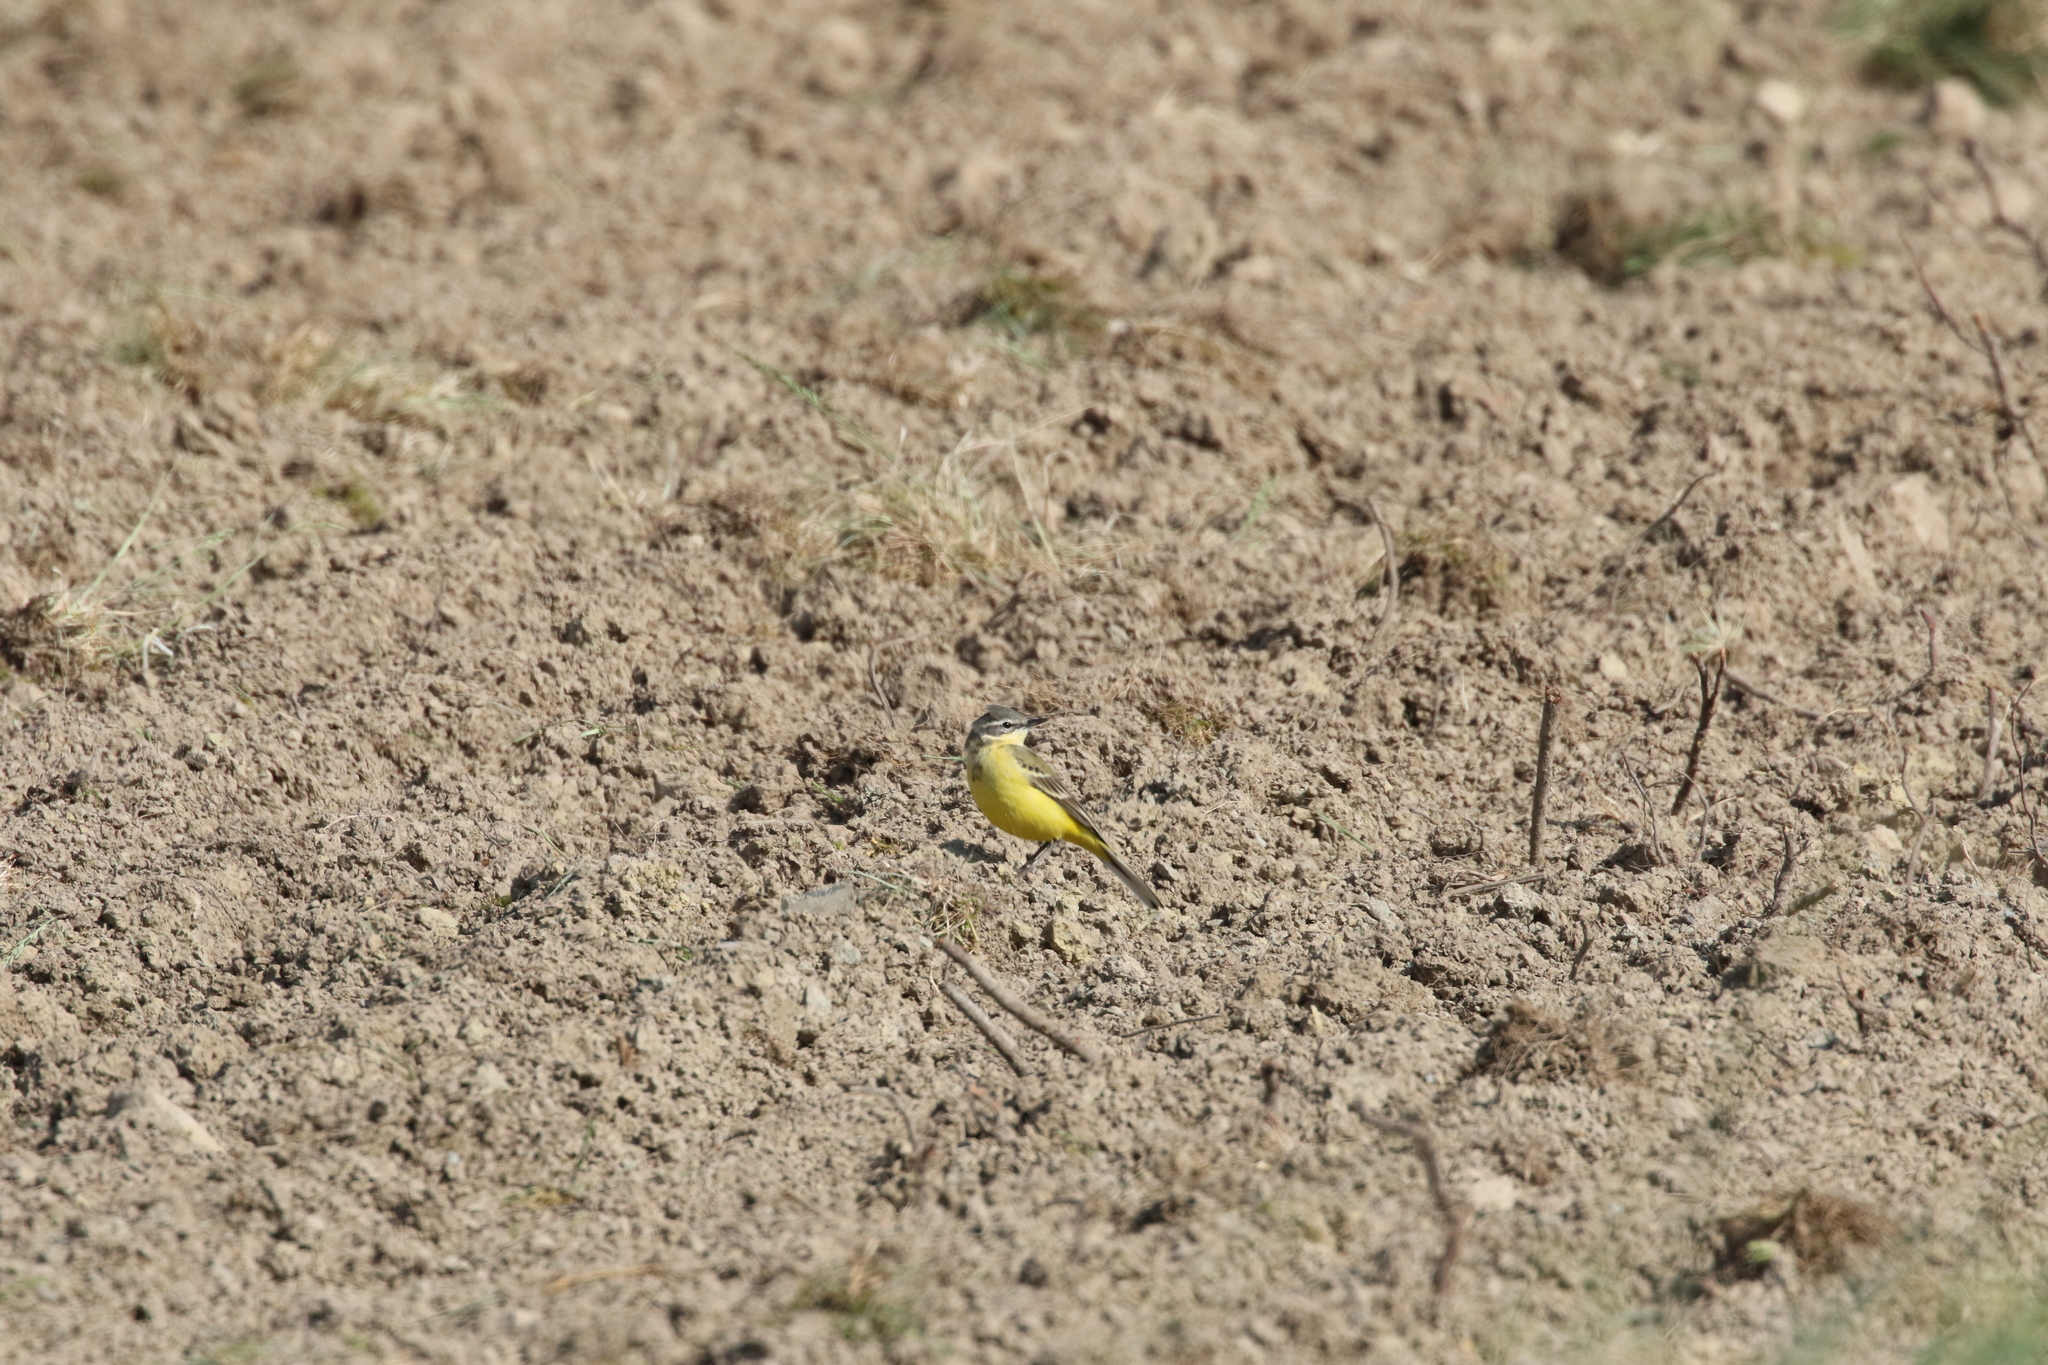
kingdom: Animalia
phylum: Chordata
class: Aves
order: Passeriformes
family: Motacillidae
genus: Motacilla
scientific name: Motacilla flava
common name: Western yellow wagtail
